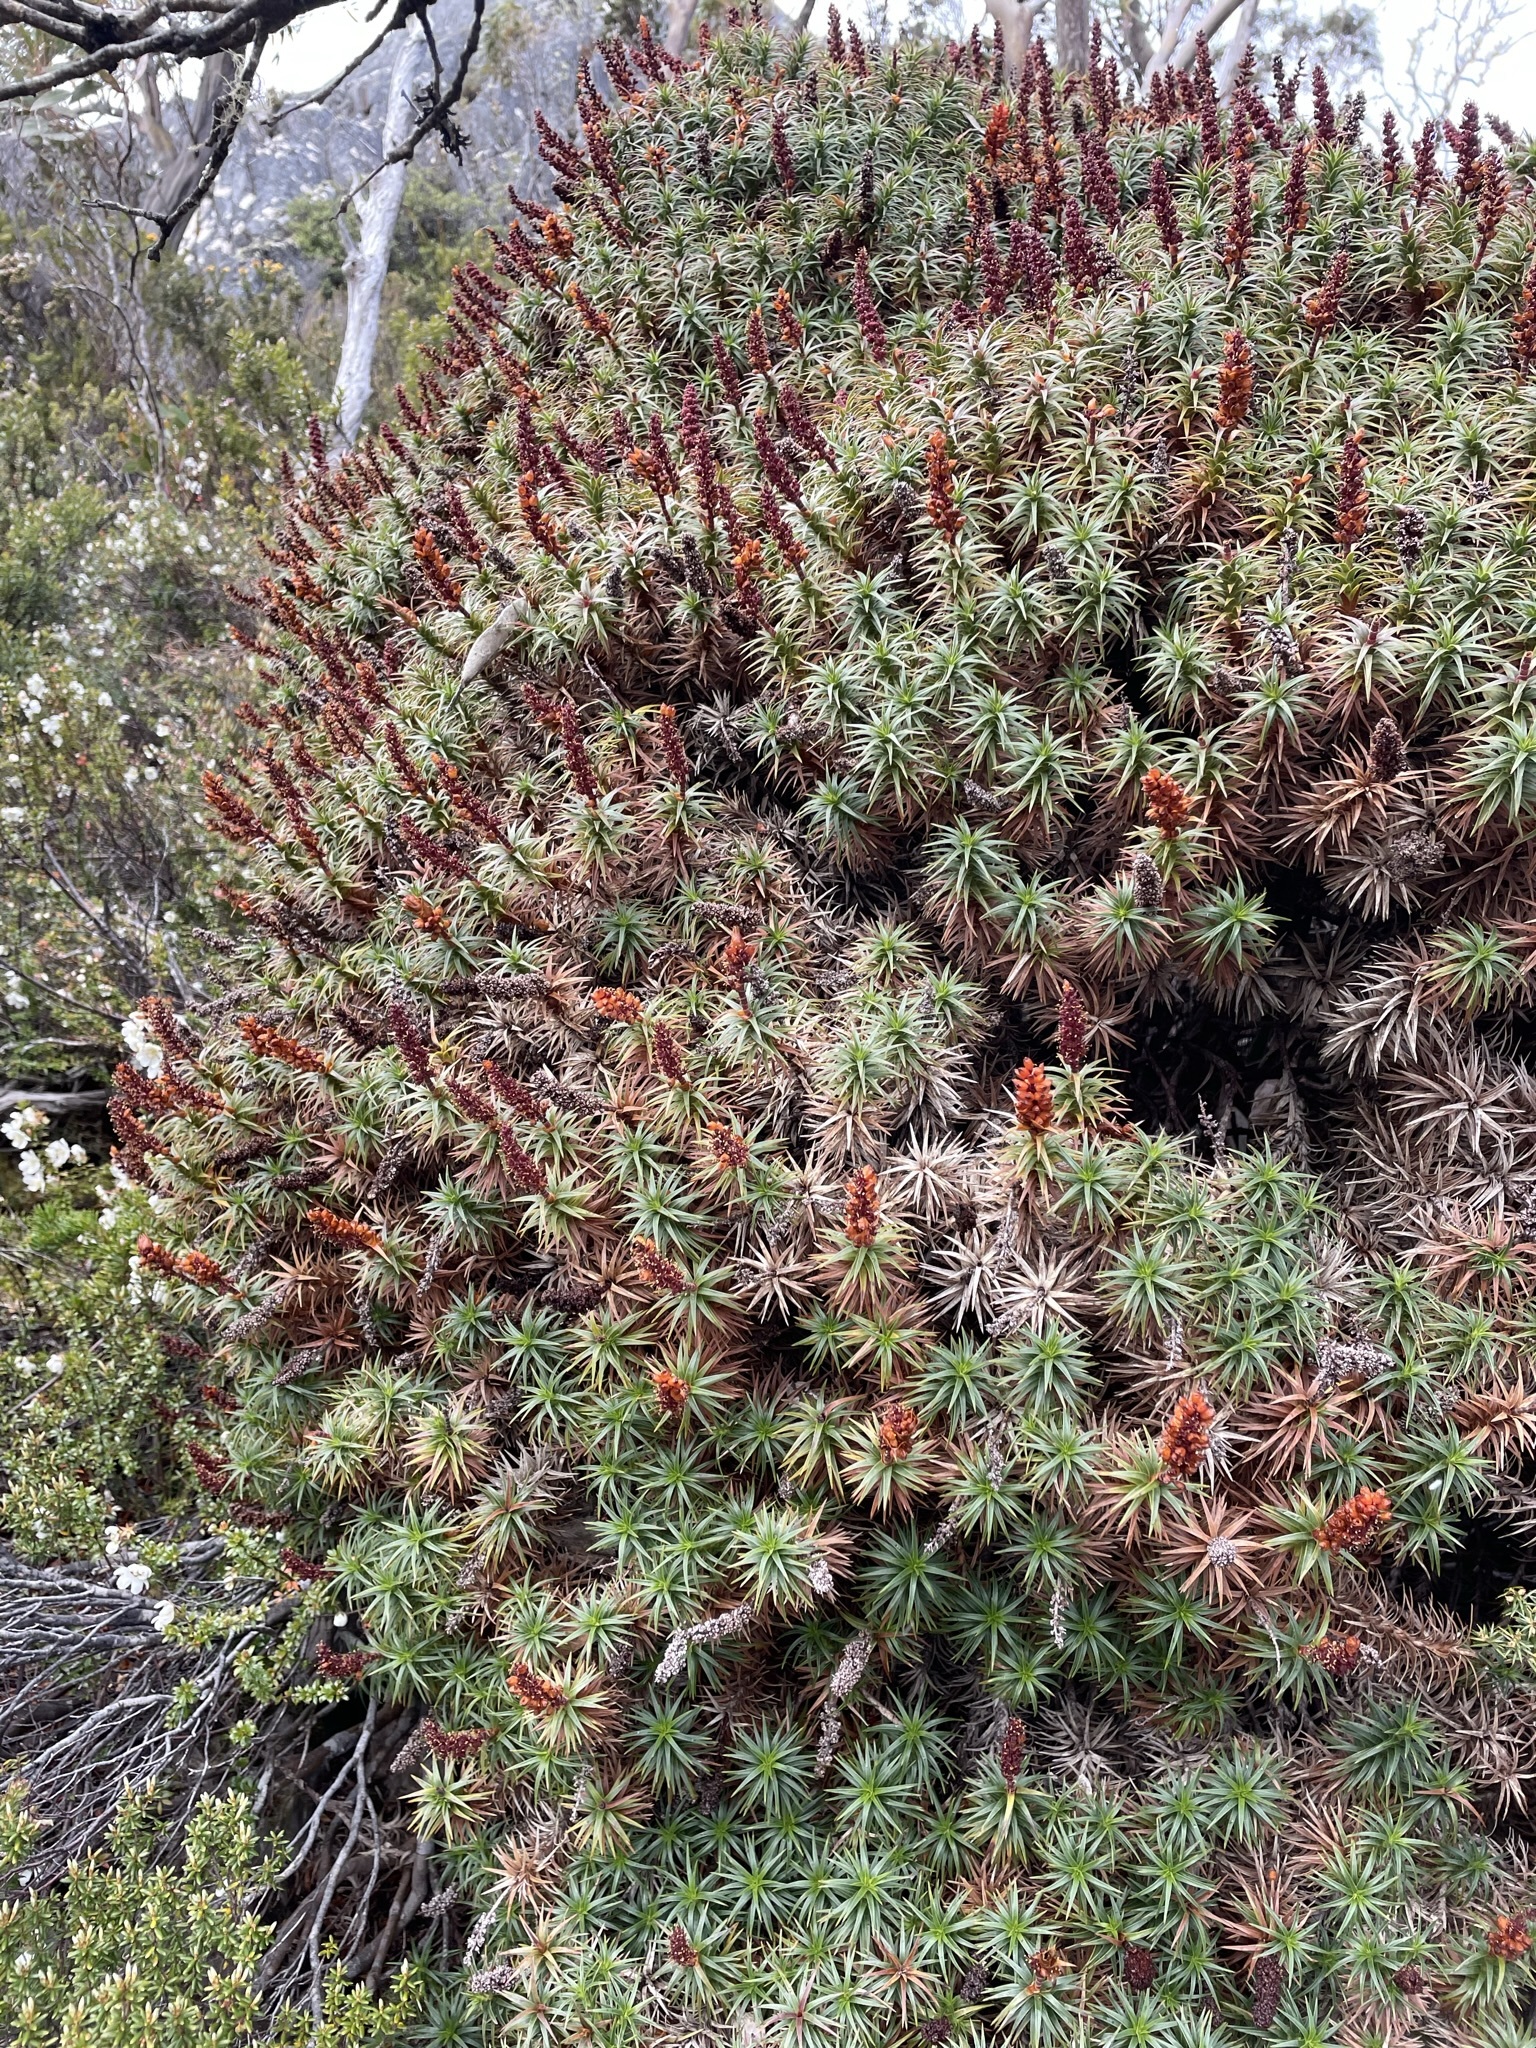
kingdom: Plantae
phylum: Tracheophyta
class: Magnoliopsida
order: Ericales
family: Ericaceae
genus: Dracophyllum
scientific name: Dracophyllum persistentifolium
